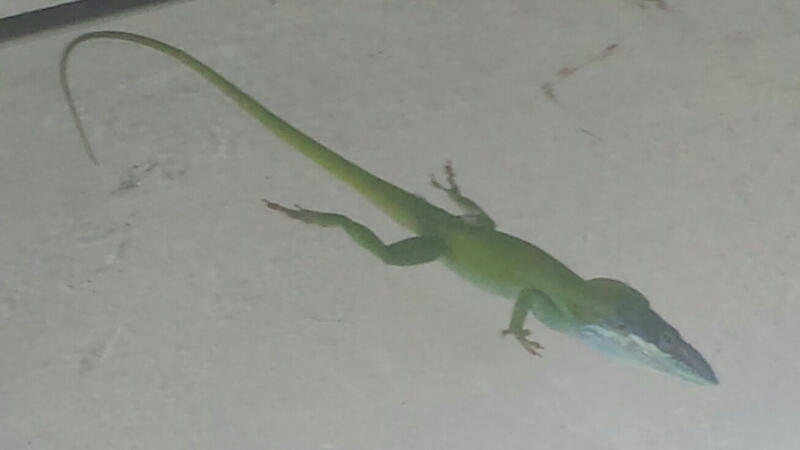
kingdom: Animalia
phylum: Chordata
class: Squamata
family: Dactyloidae
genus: Anolis
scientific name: Anolis allisoni
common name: Allison's anole
